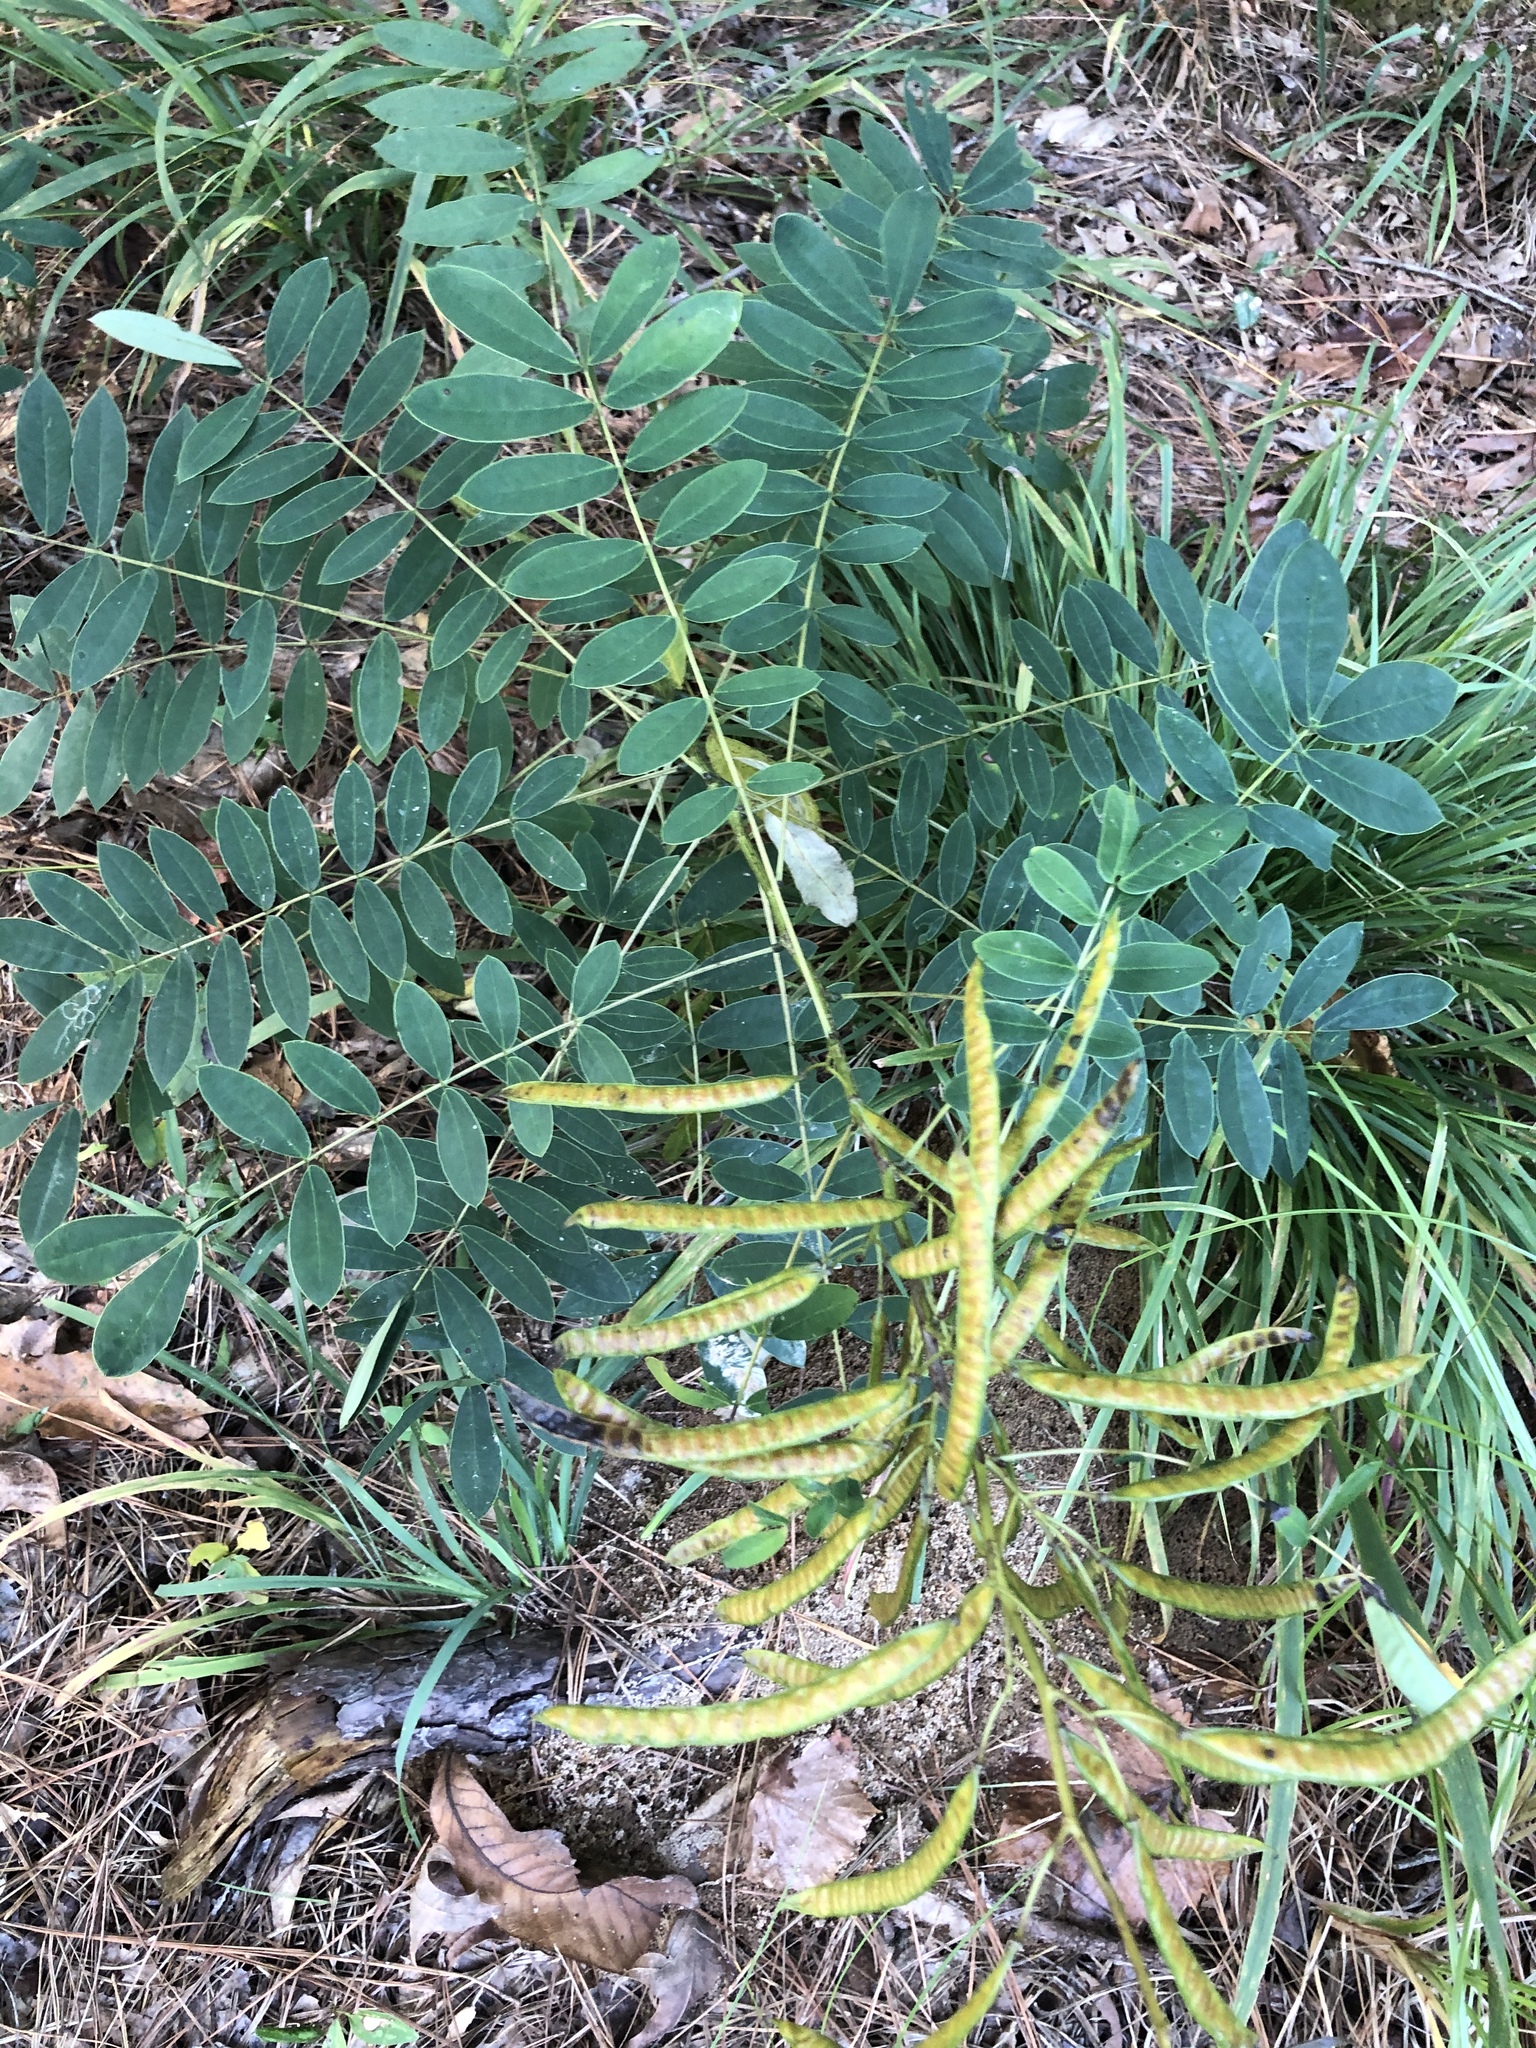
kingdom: Plantae
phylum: Tracheophyta
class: Magnoliopsida
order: Fabales
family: Fabaceae
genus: Senna
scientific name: Senna marilandica
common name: American senna
